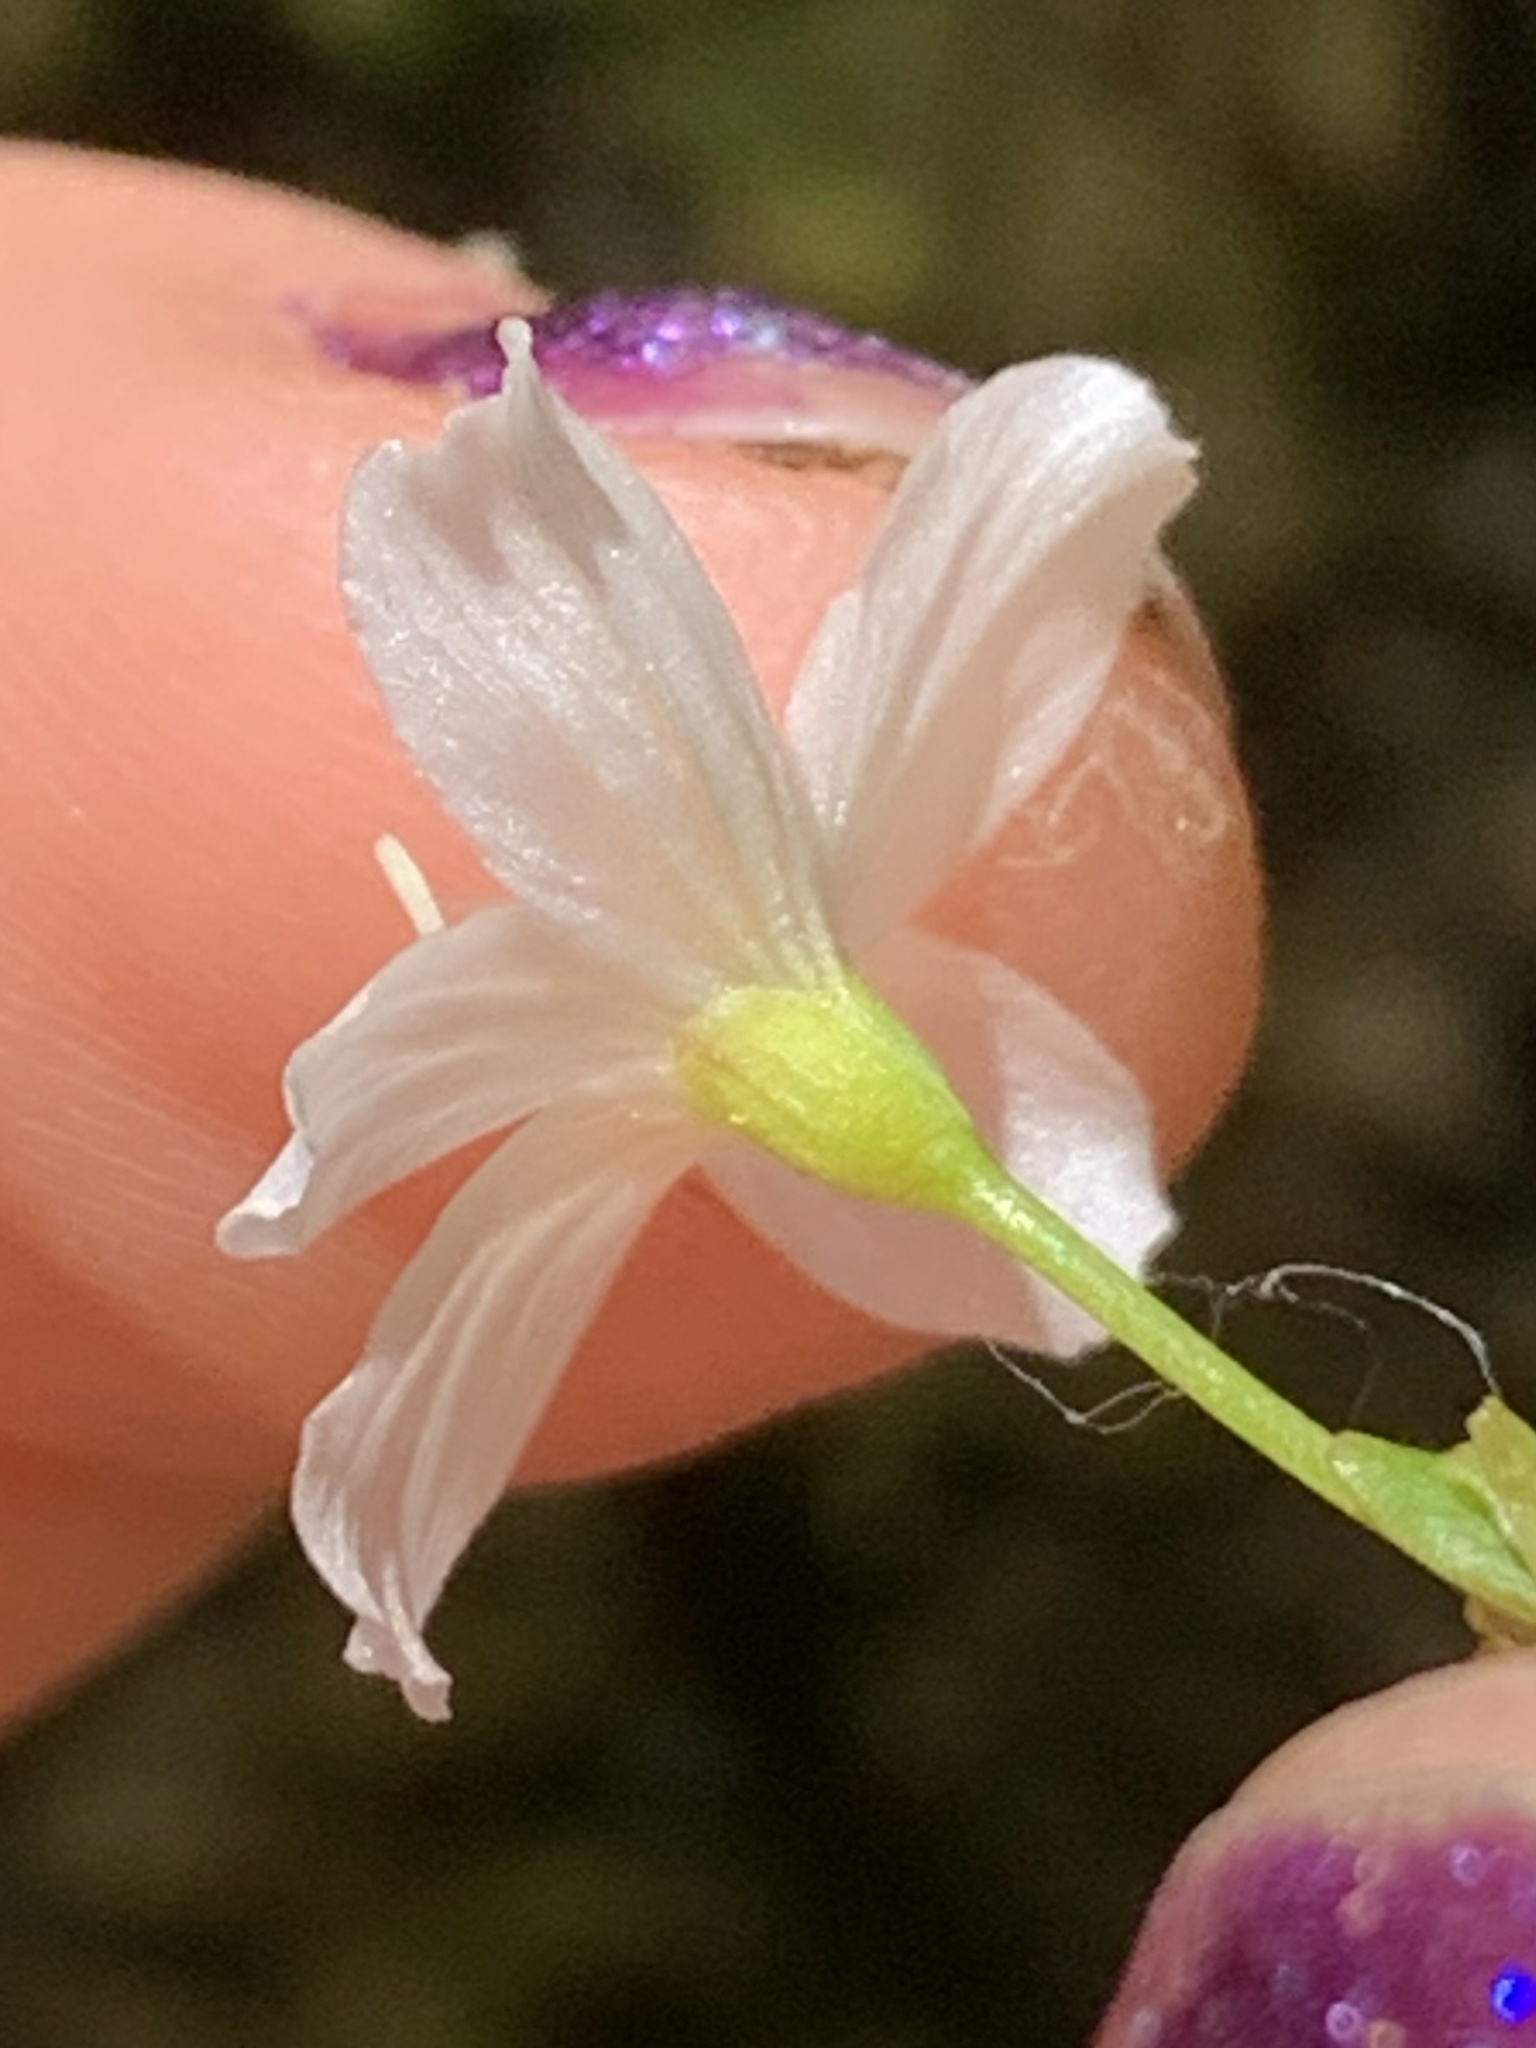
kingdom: Plantae
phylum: Tracheophyta
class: Magnoliopsida
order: Caryophyllales
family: Montiaceae
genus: Montia
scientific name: Montia parvifolia
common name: Small-leaved blinks
